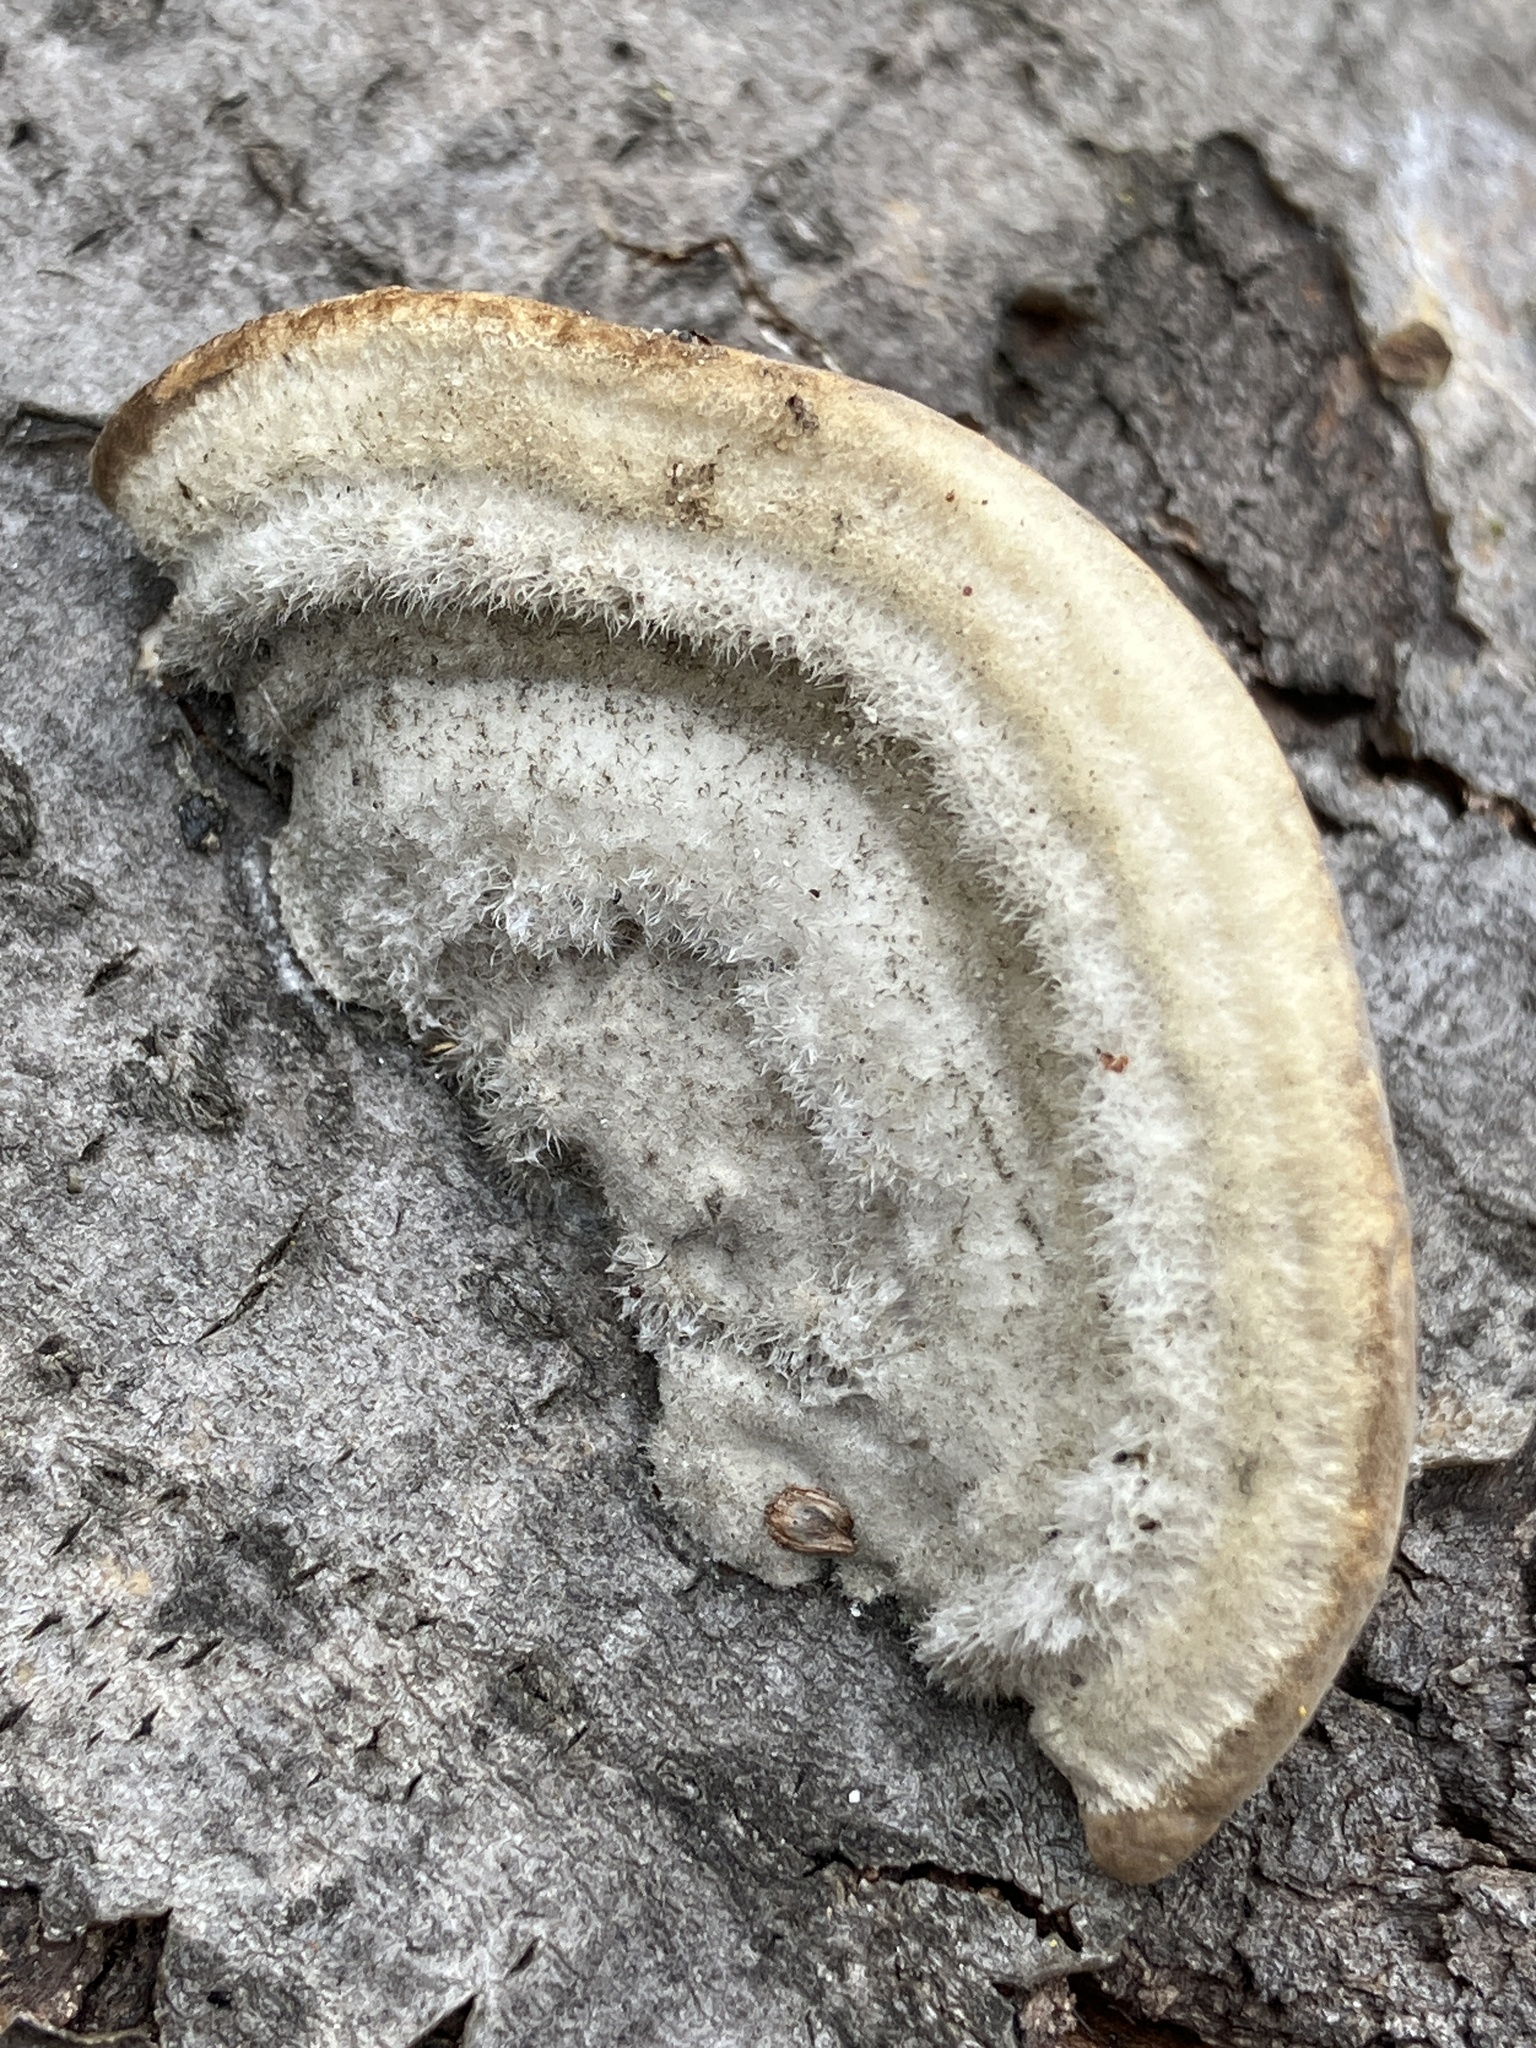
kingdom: Fungi
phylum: Basidiomycota
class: Agaricomycetes
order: Polyporales
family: Polyporaceae
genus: Trametes
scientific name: Trametes hirsuta
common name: Hairy bracket
